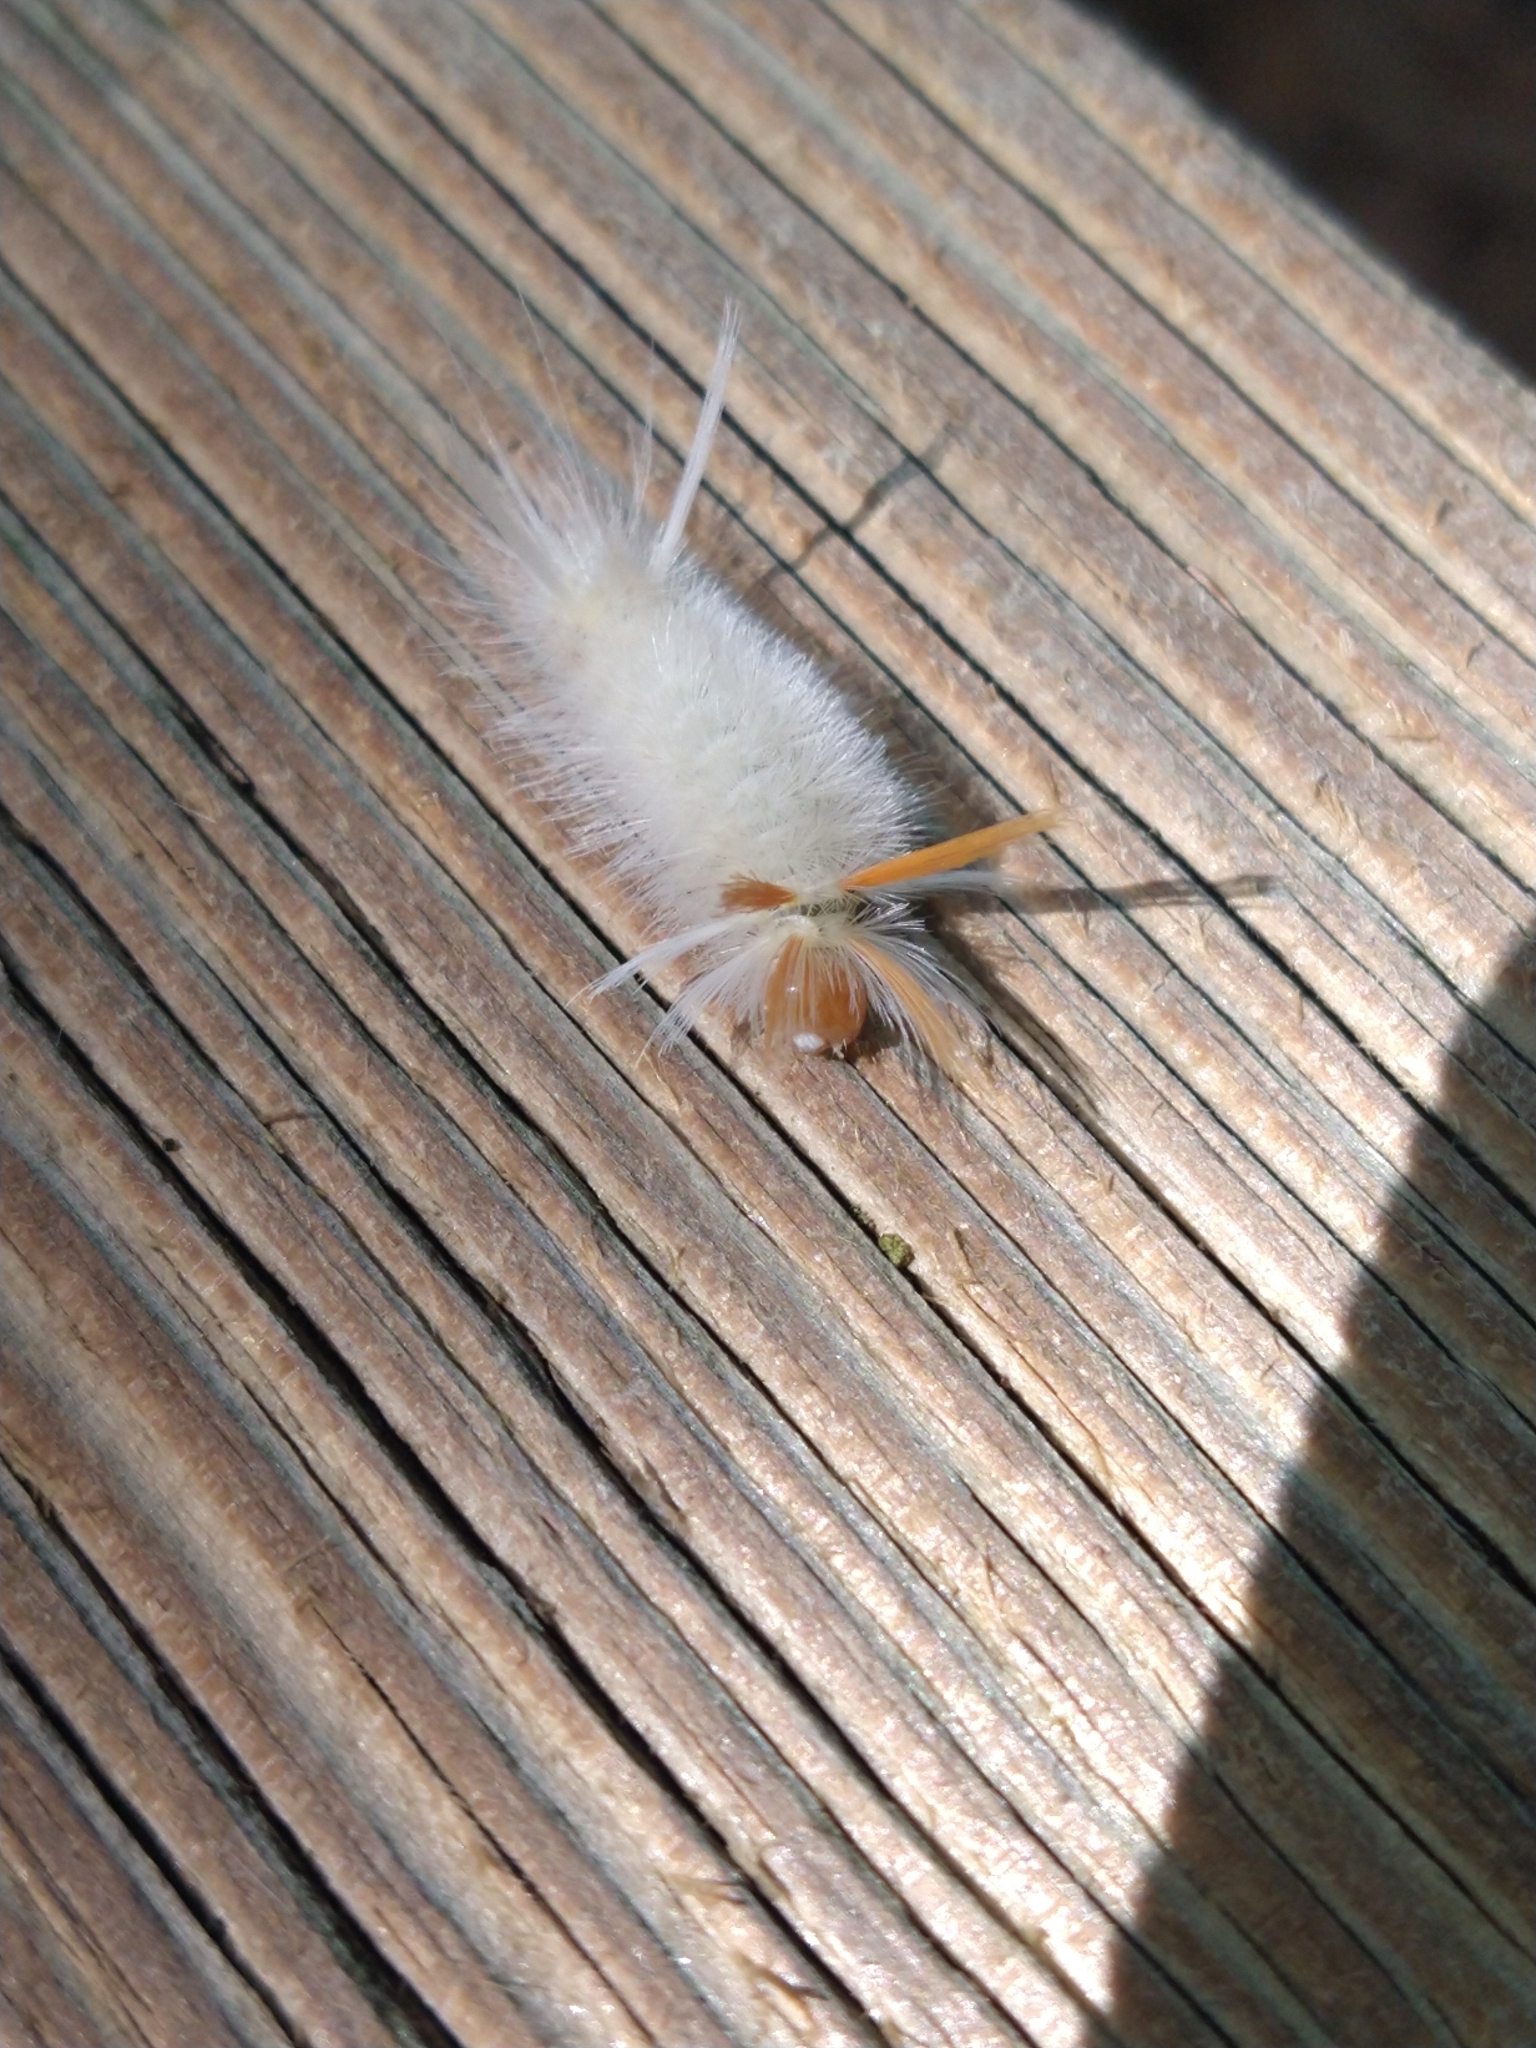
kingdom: Animalia
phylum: Arthropoda
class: Insecta
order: Lepidoptera
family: Erebidae
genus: Halysidota
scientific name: Halysidota harrisii
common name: Sycamore tussock moth
